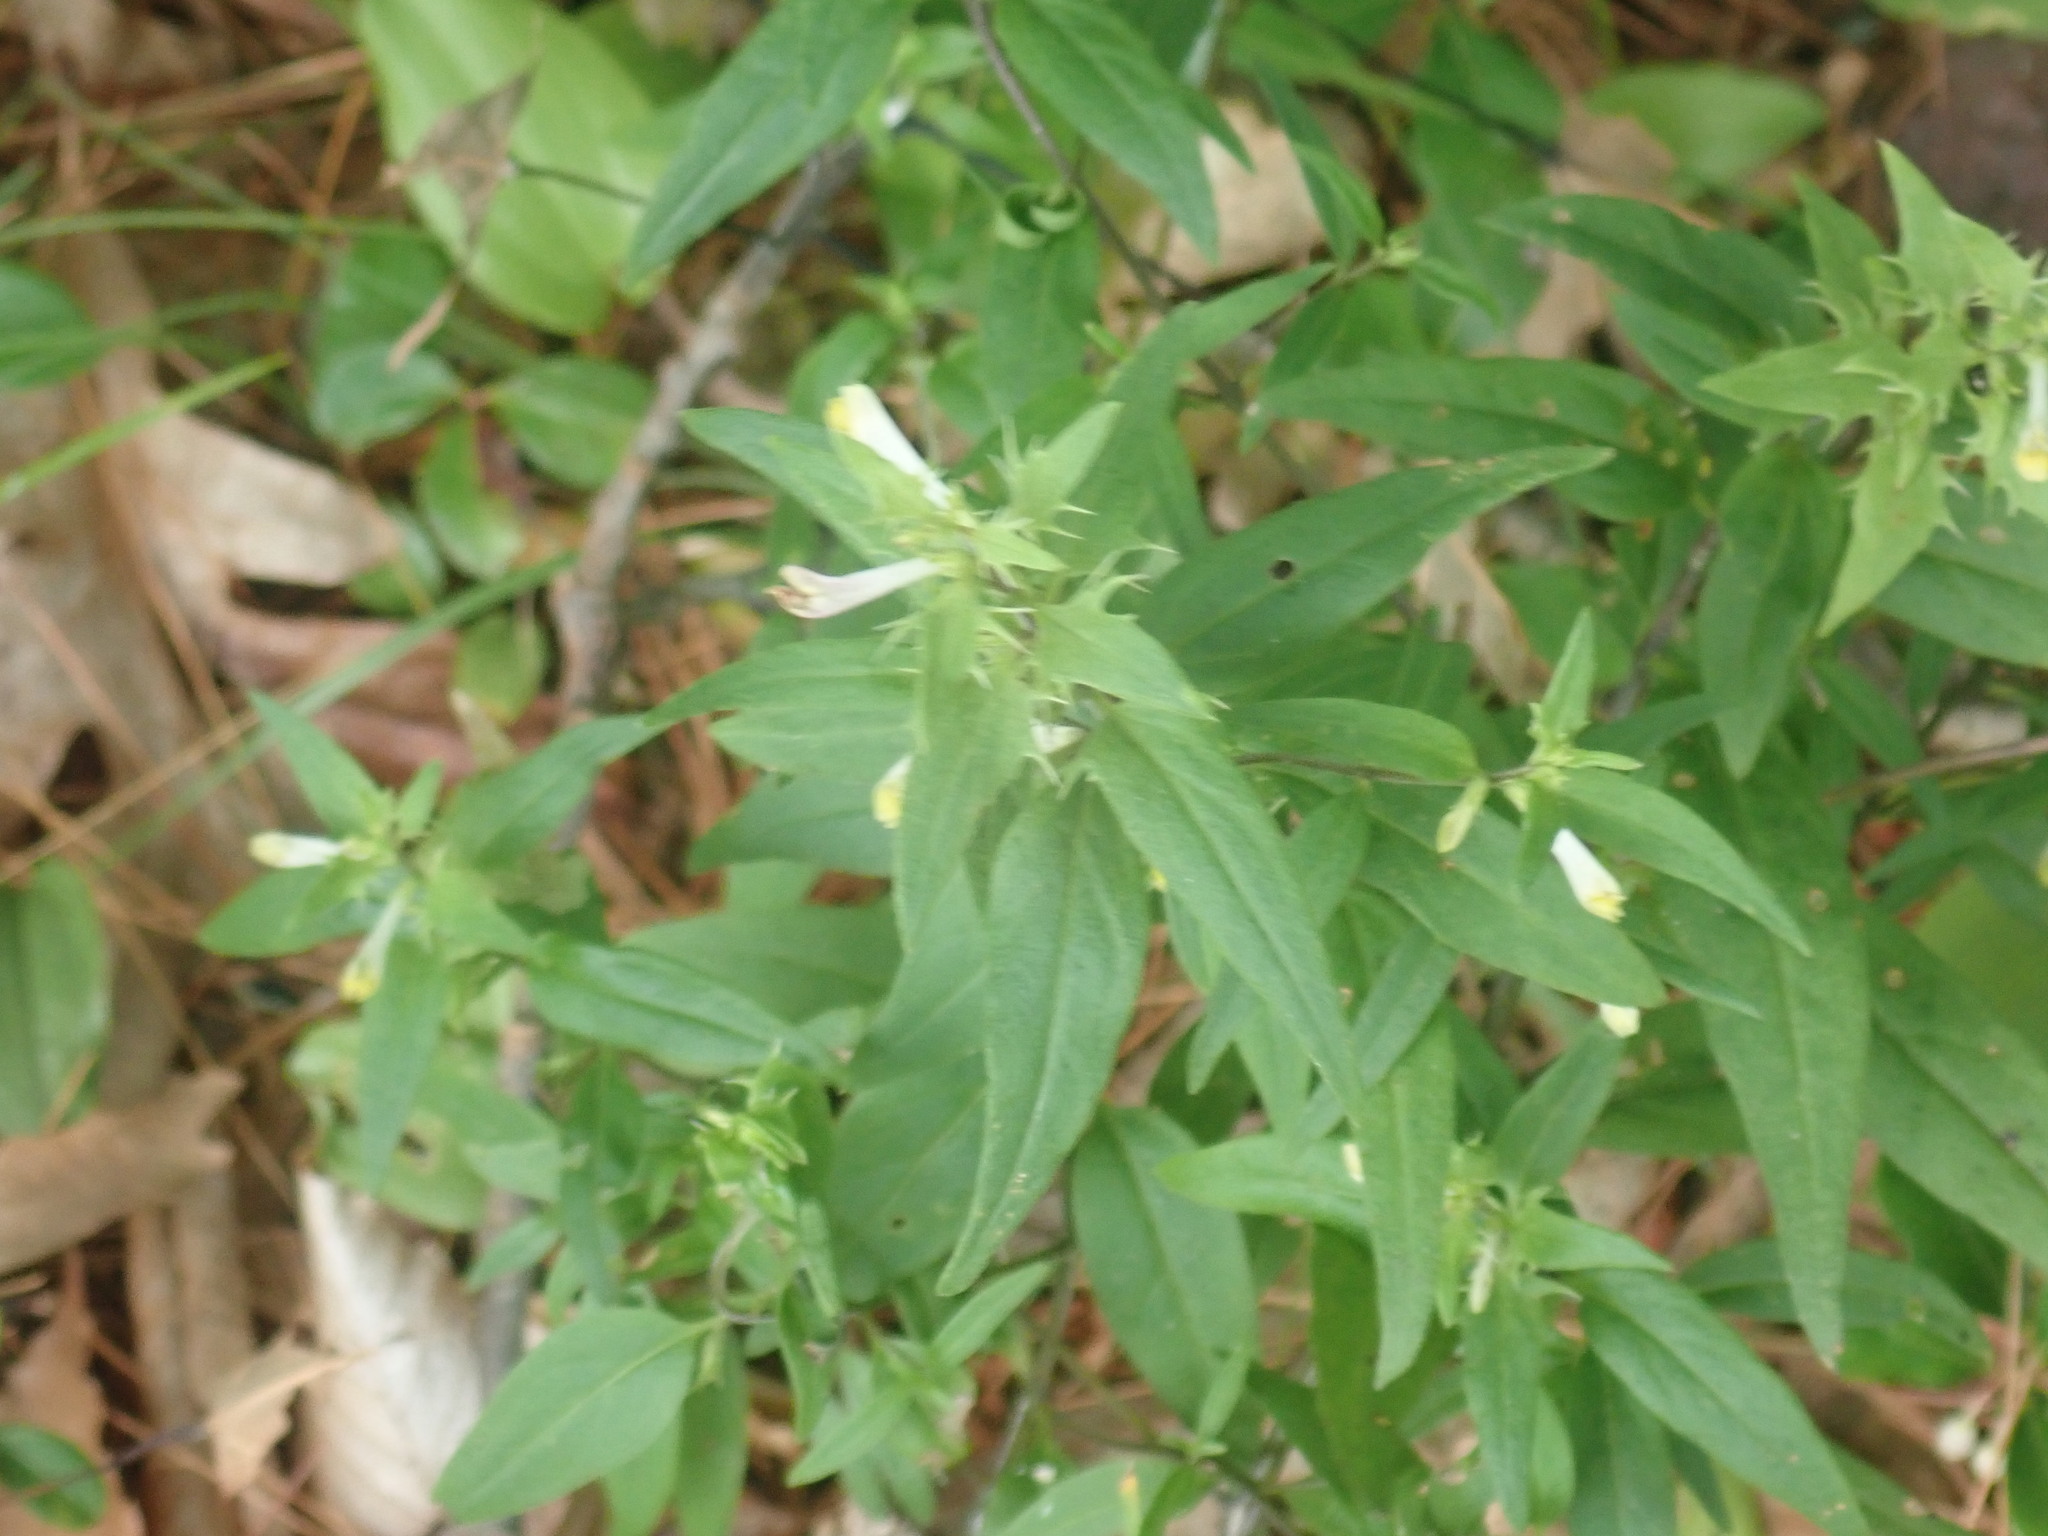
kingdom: Plantae
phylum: Tracheophyta
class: Magnoliopsida
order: Lamiales
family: Orobanchaceae
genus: Melampyrum
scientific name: Melampyrum lineare
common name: American cow-wheat
